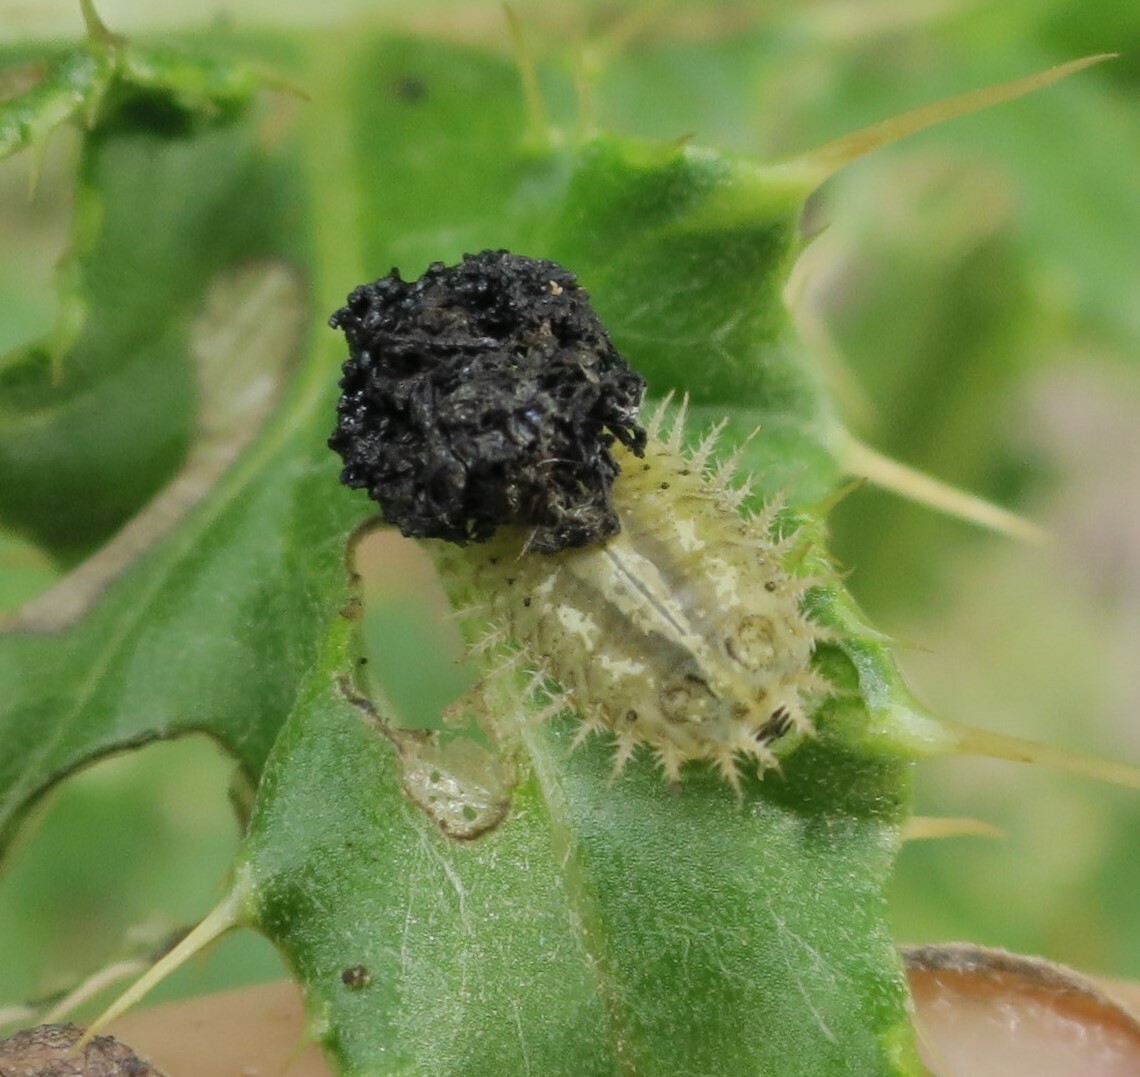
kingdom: Animalia
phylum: Arthropoda
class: Insecta
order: Coleoptera
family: Chrysomelidae
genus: Cassida
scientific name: Cassida rubiginosa
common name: Thistle tortoise beetle
